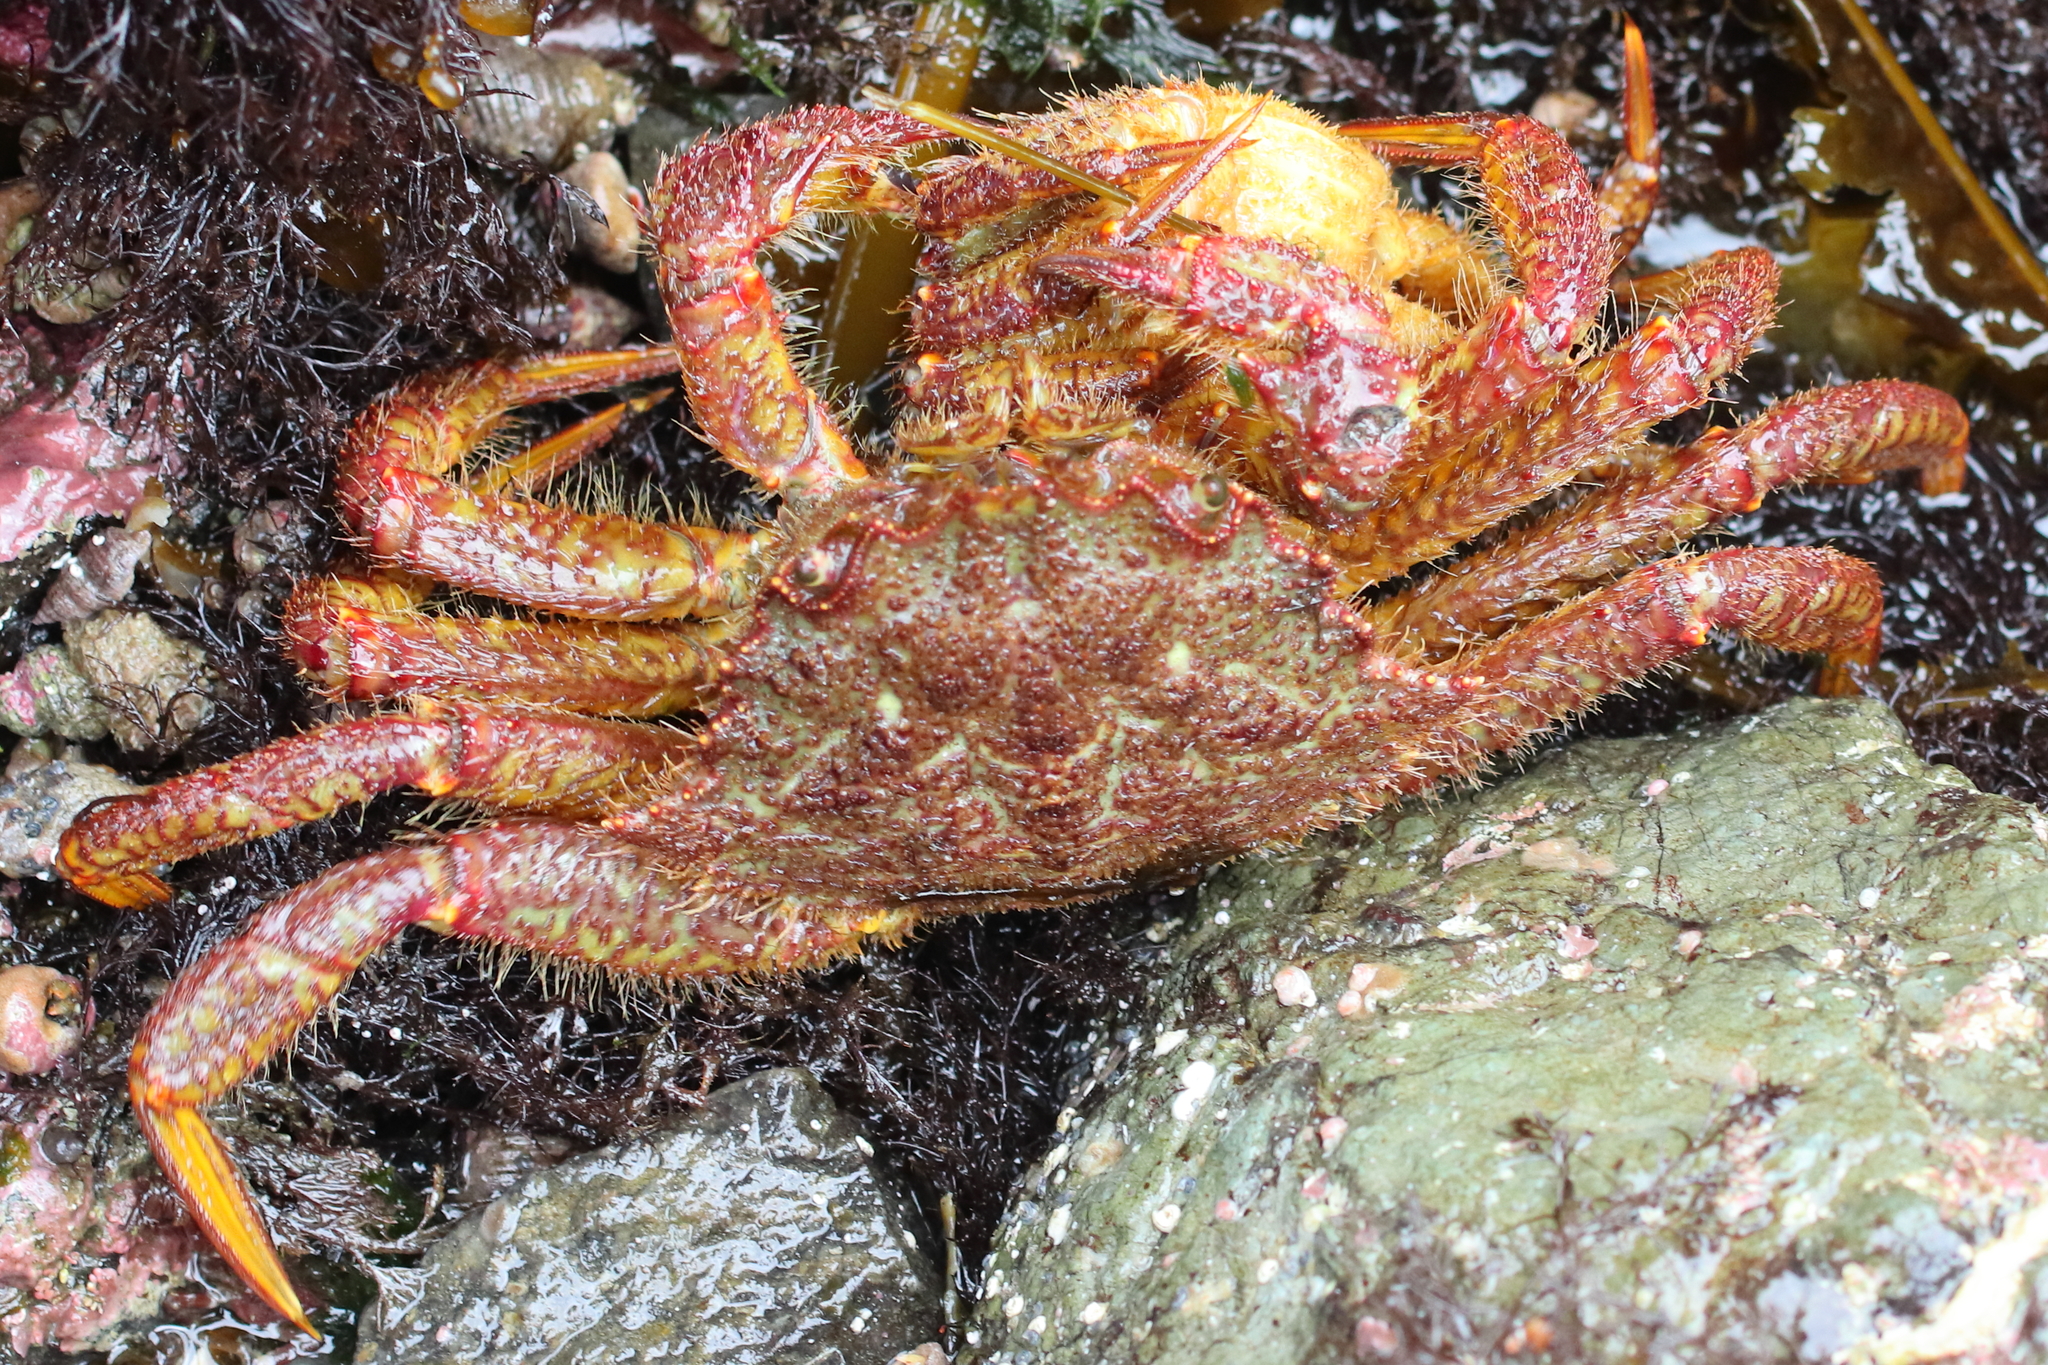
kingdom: Animalia
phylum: Arthropoda
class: Malacostraca
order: Decapoda
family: Cheiragonidae
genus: Telmessus
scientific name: Telmessus cheiragonus
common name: Helmet crab
